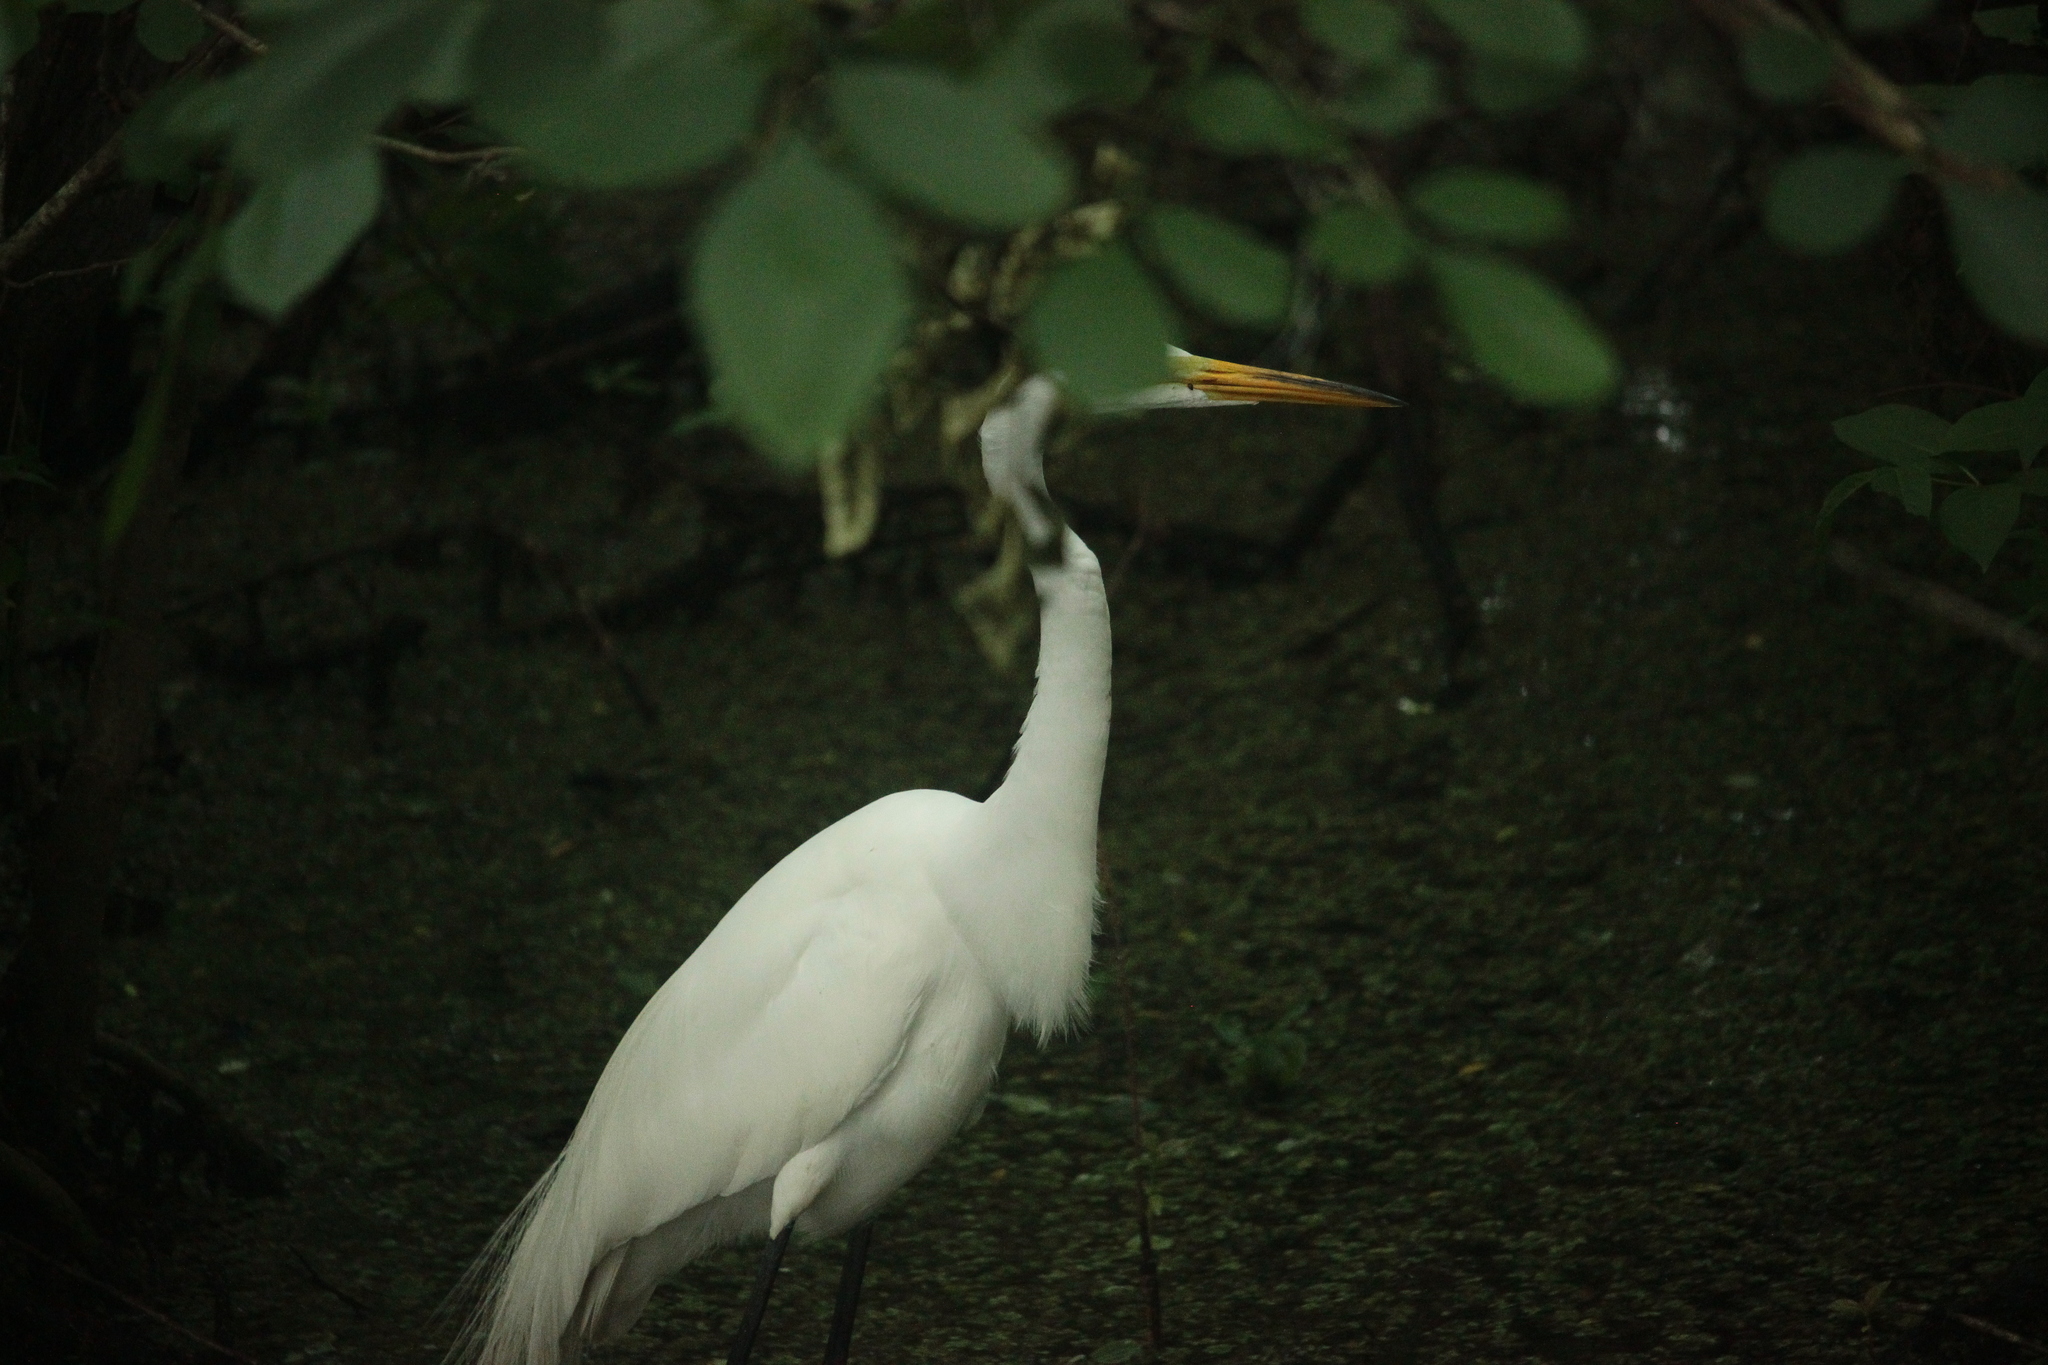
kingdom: Animalia
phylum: Chordata
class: Aves
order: Pelecaniformes
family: Ardeidae
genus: Ardea
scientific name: Ardea alba
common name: Great egret
